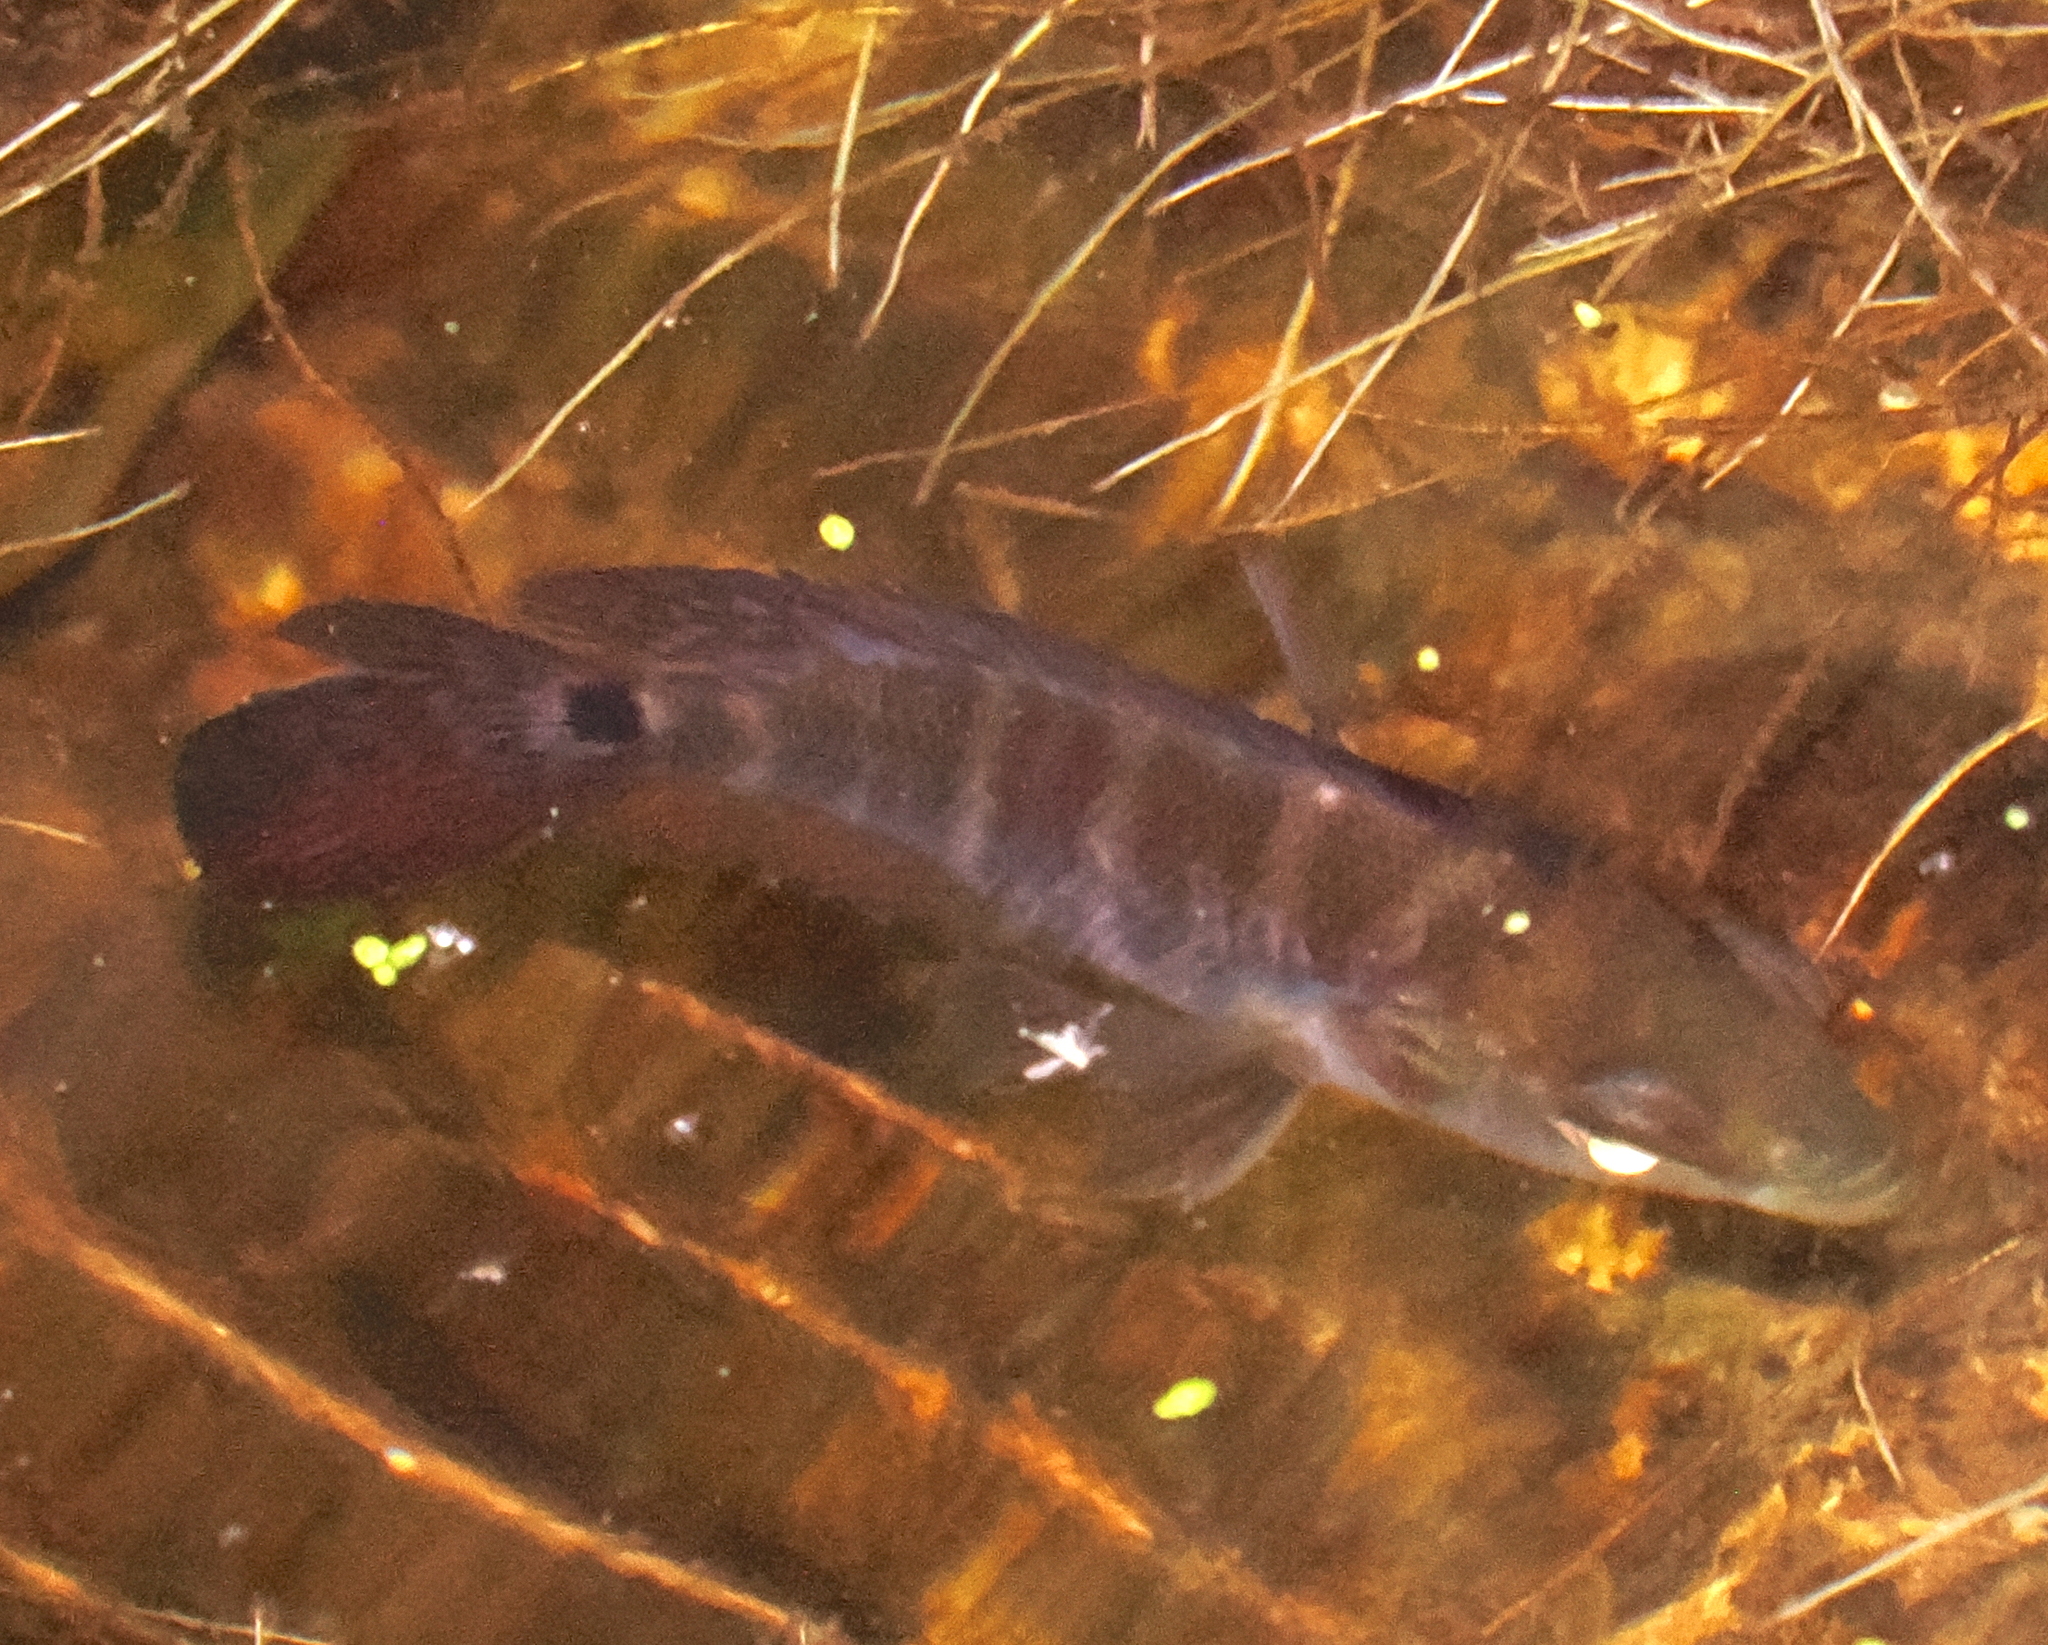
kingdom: Animalia
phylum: Chordata
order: Perciformes
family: Cichlidae
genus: Caquetaia
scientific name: Caquetaia kraussii
